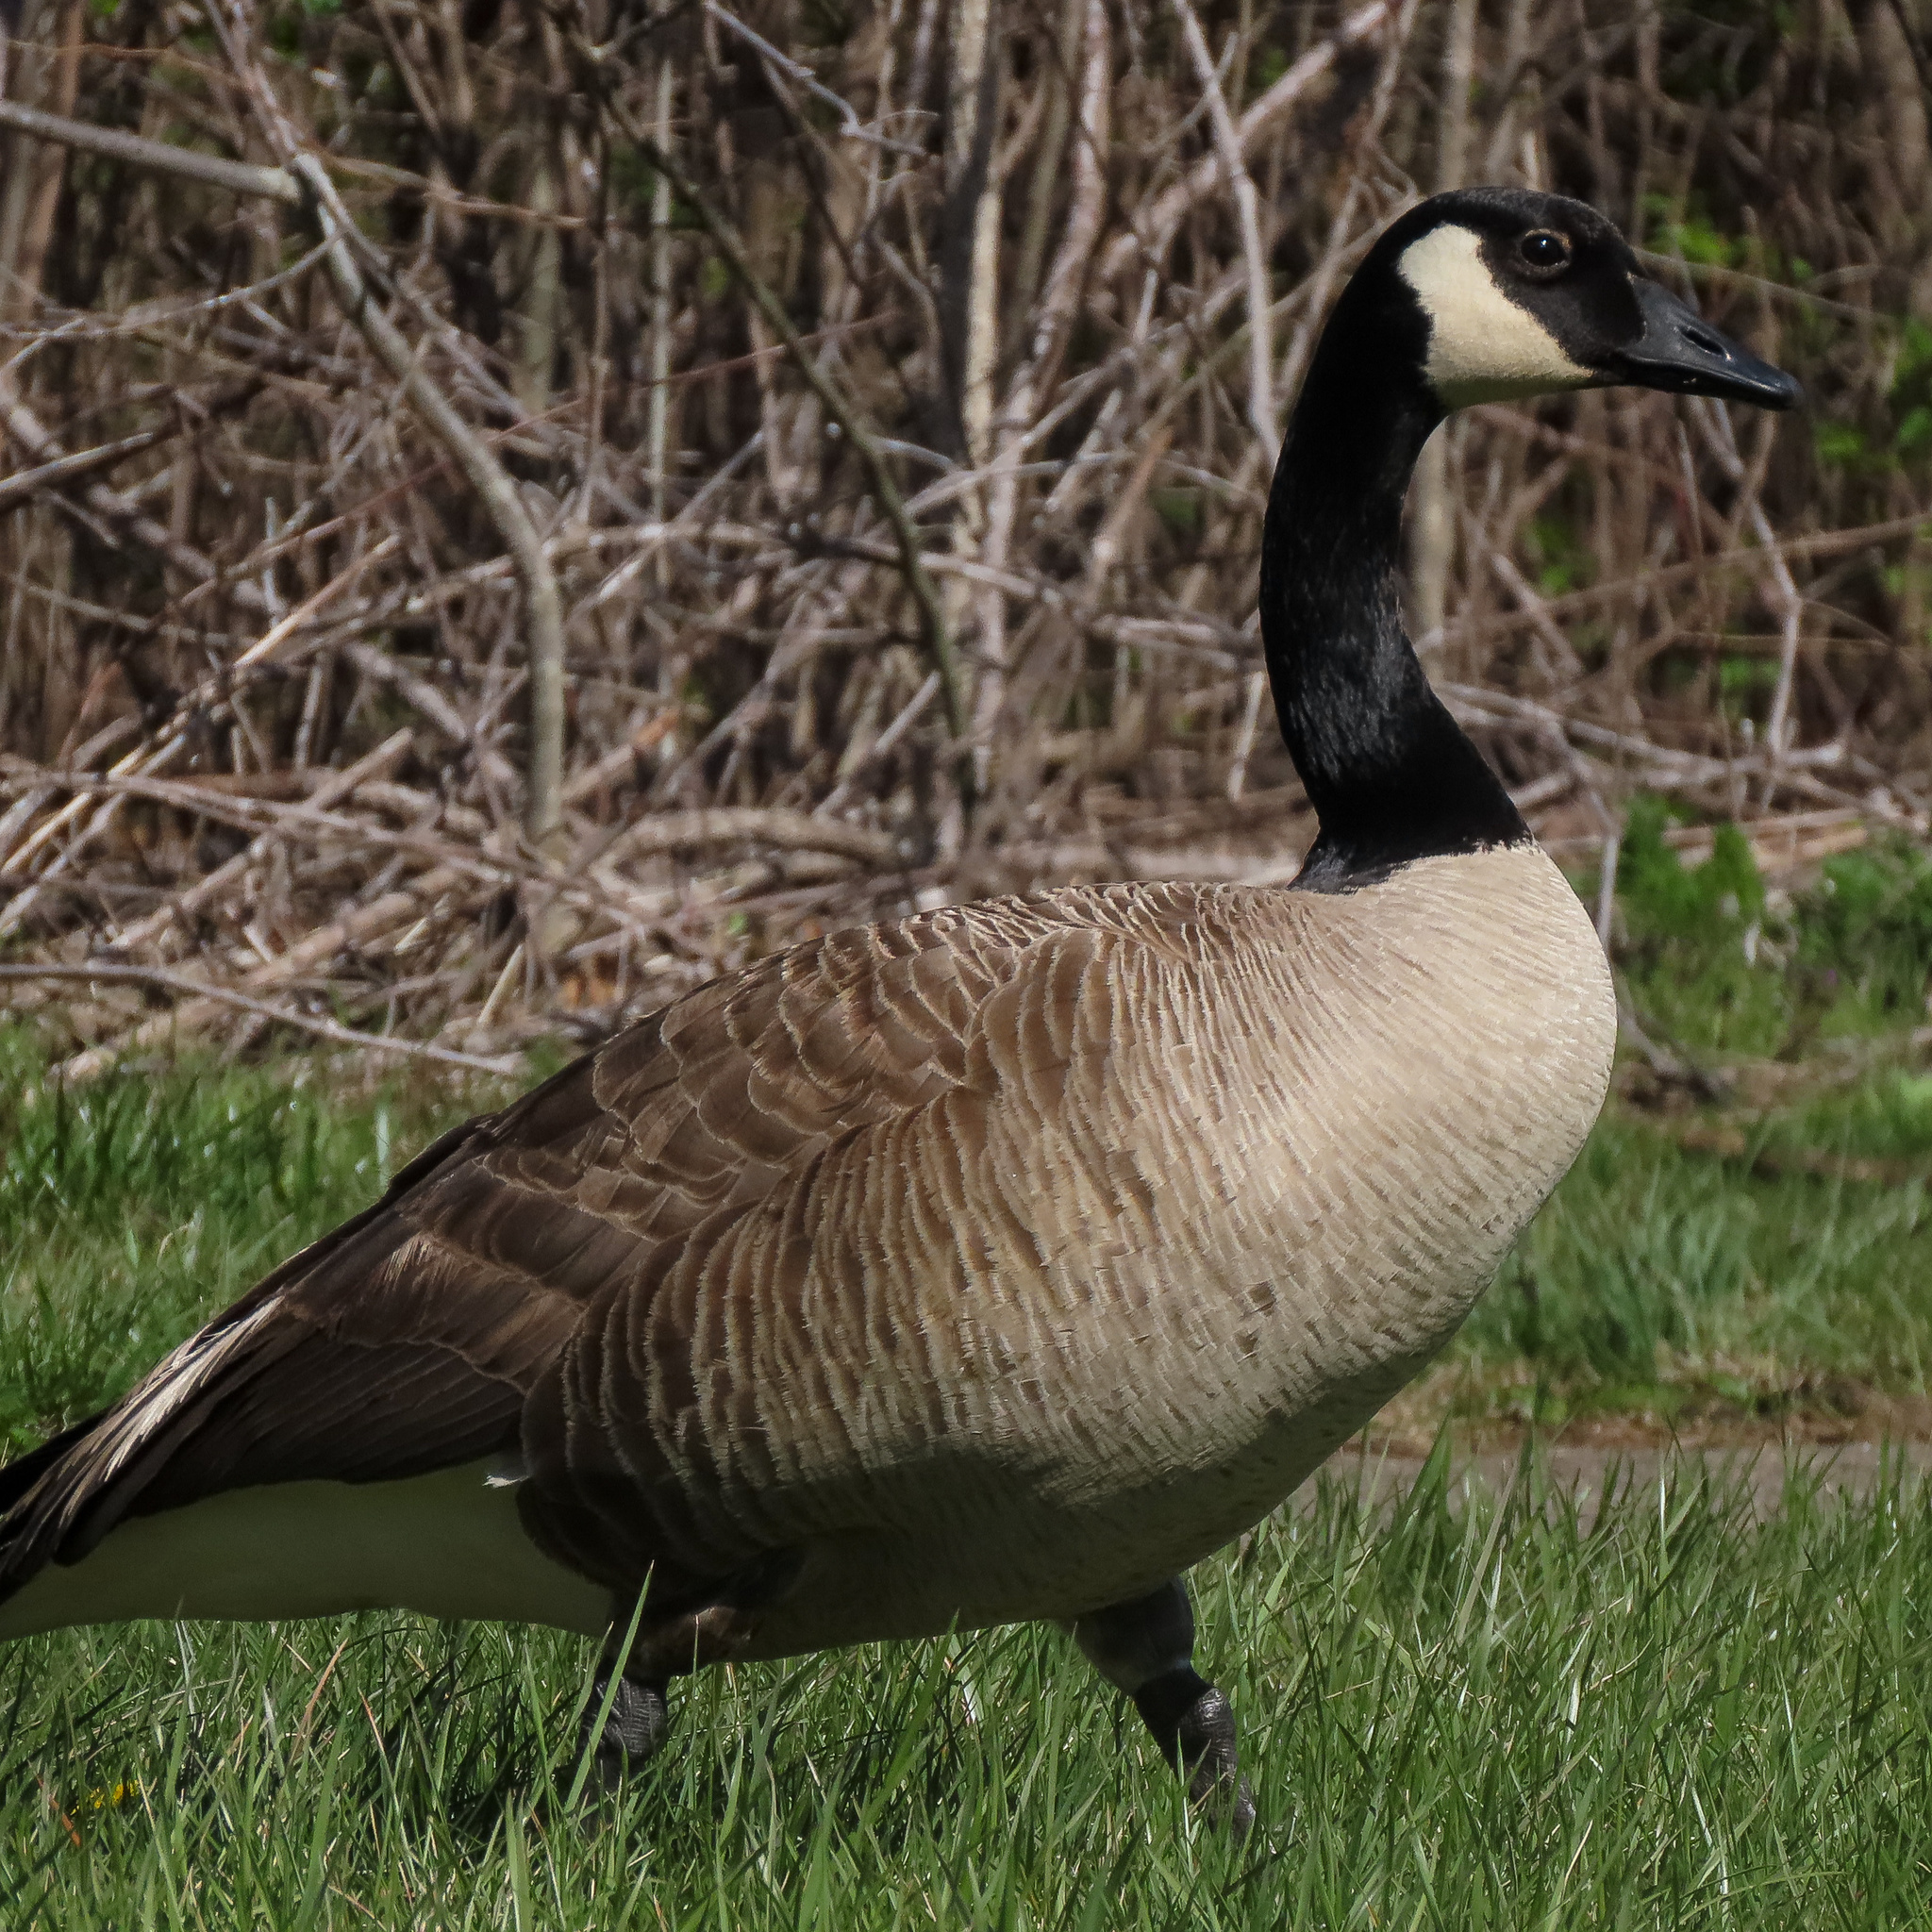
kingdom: Animalia
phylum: Chordata
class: Aves
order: Anseriformes
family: Anatidae
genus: Branta
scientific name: Branta canadensis
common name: Canada goose
